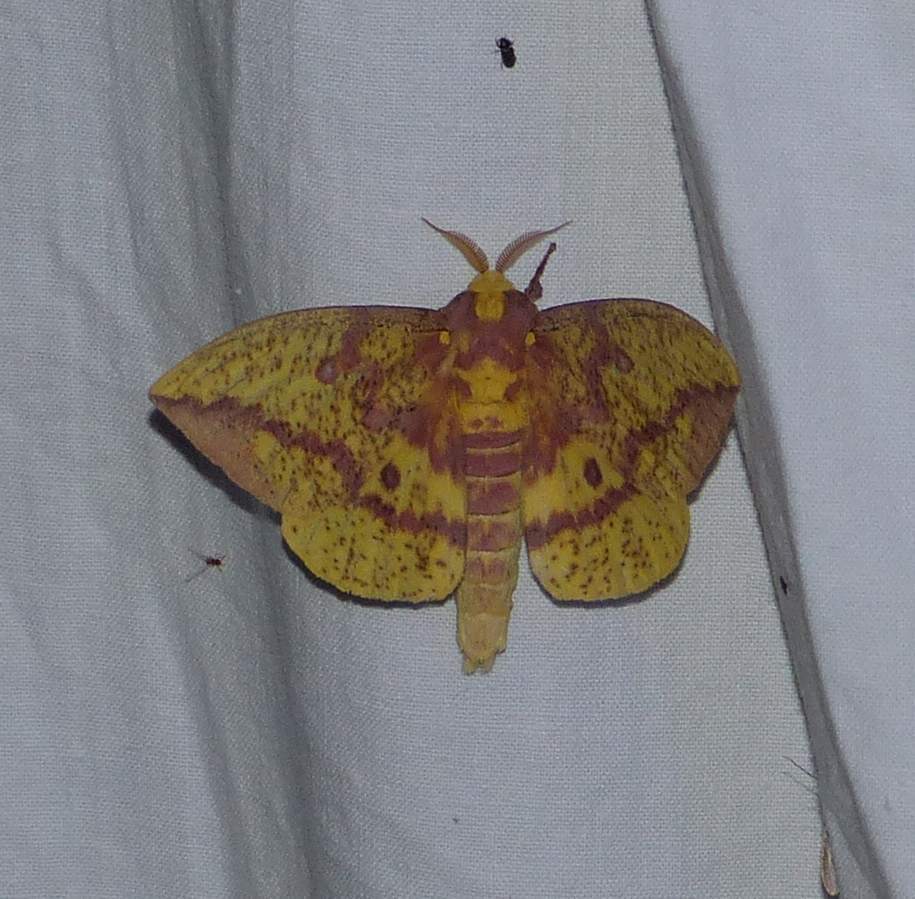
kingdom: Animalia
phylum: Arthropoda
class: Insecta
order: Lepidoptera
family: Saturniidae
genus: Eacles
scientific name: Eacles
